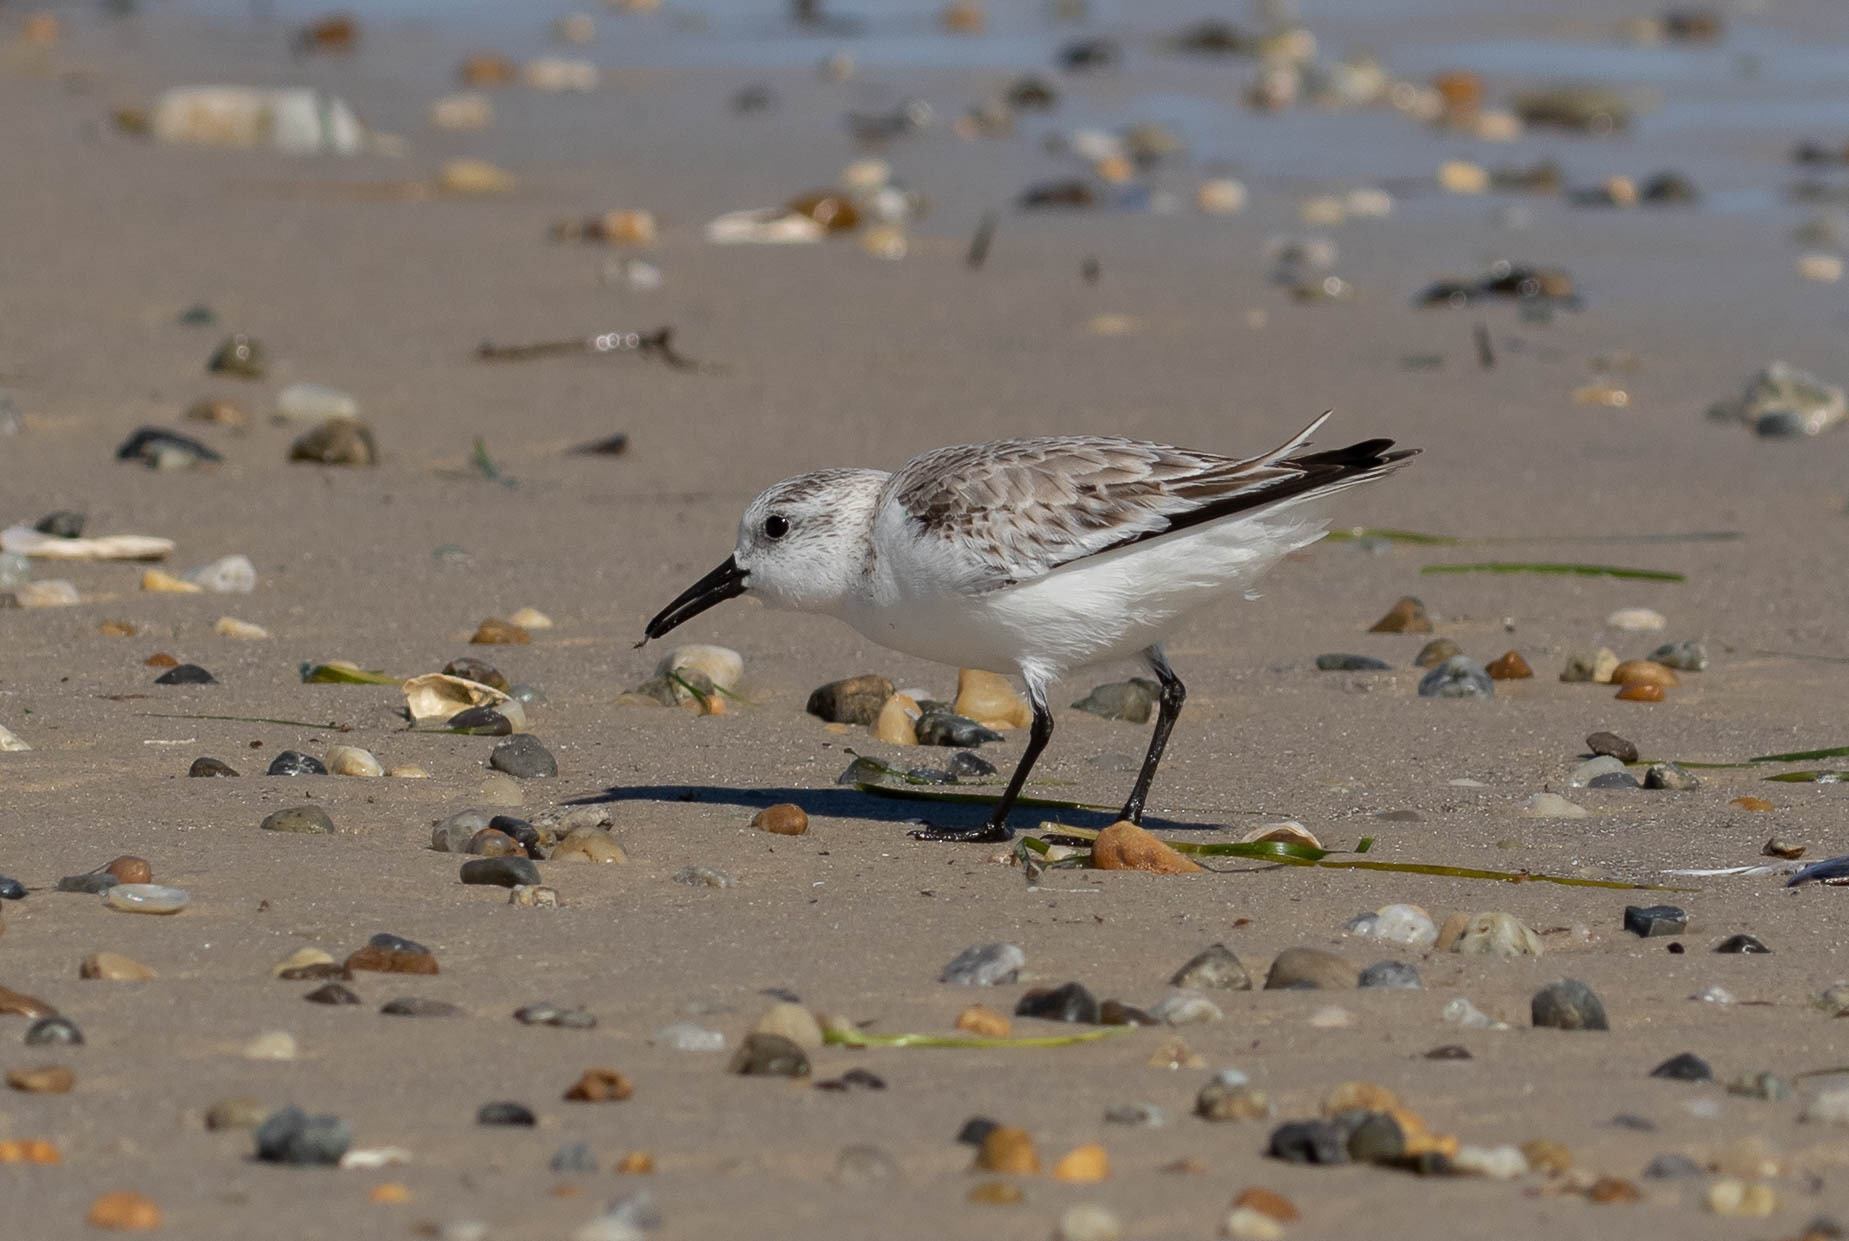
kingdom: Animalia
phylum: Chordata
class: Aves
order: Charadriiformes
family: Scolopacidae
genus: Calidris
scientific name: Calidris alba
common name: Sanderling
